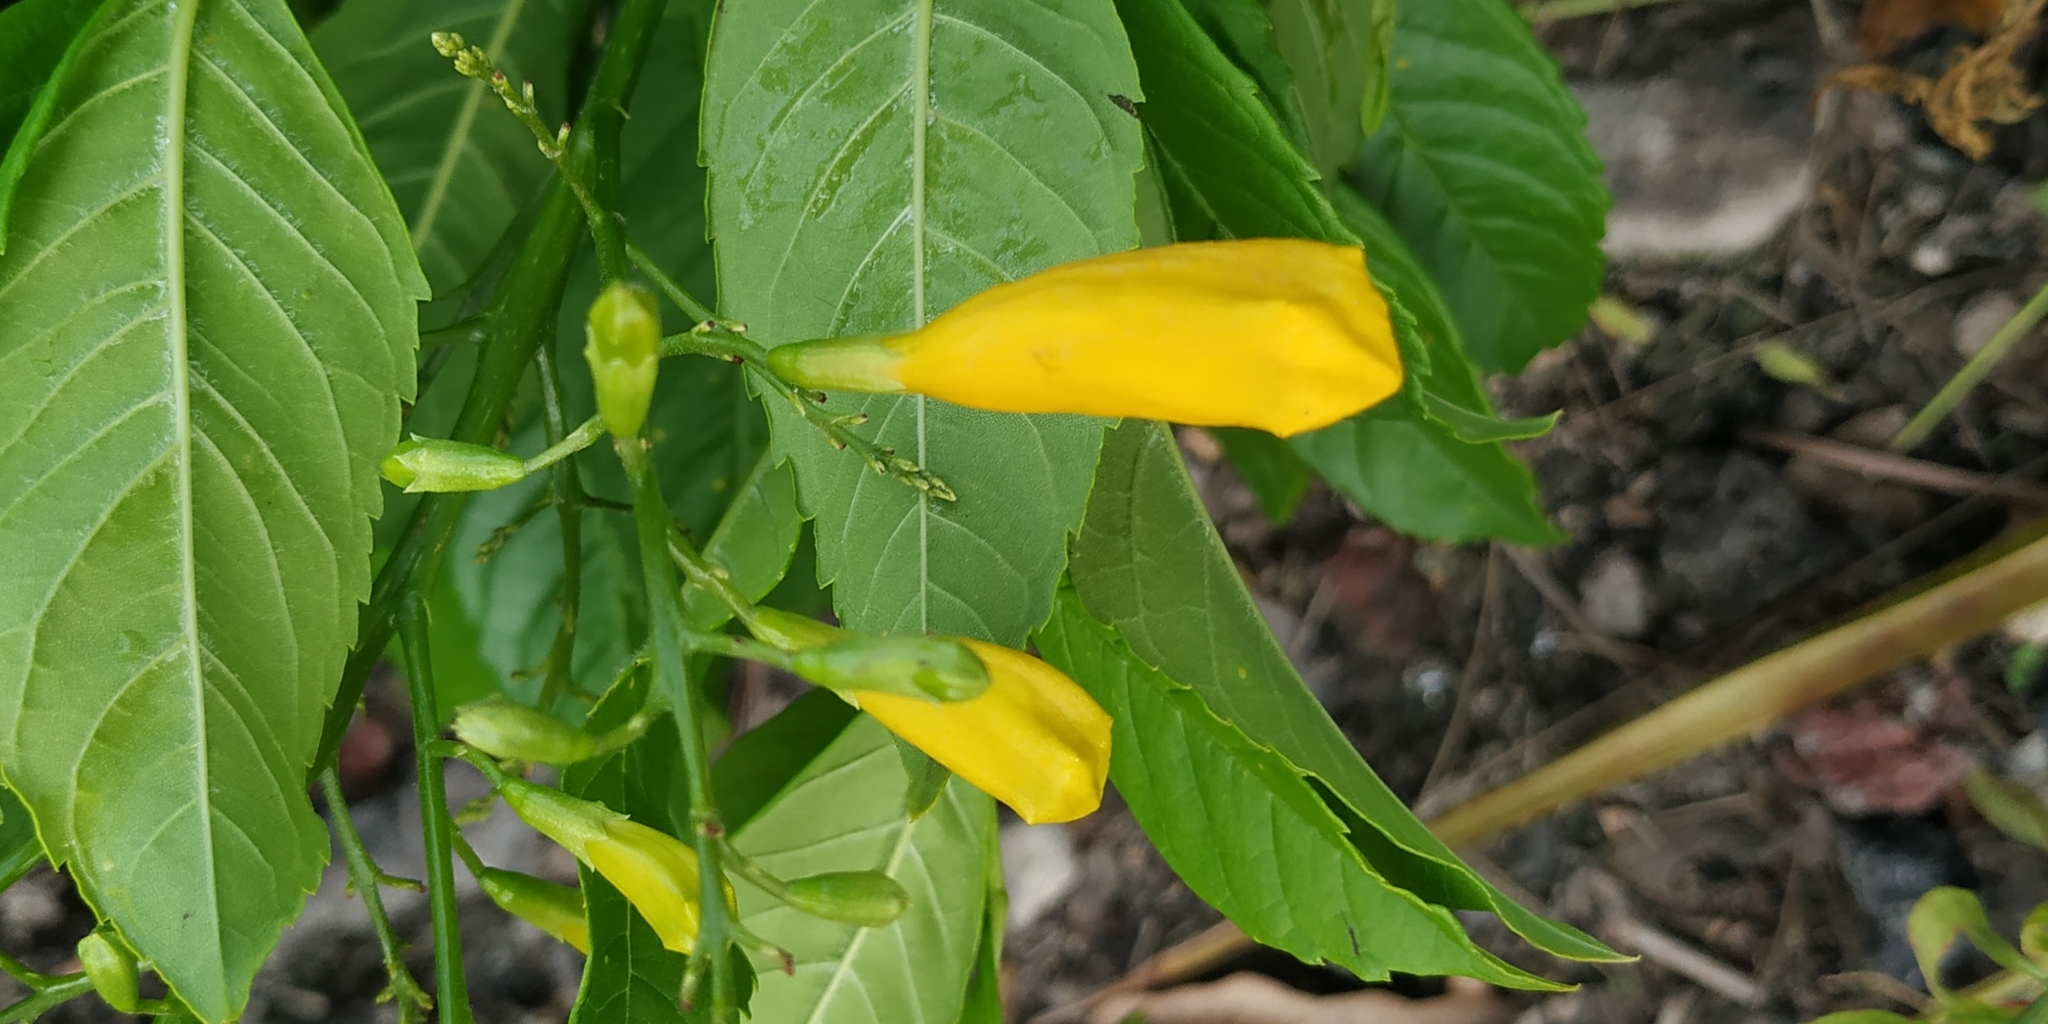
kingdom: Plantae
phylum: Tracheophyta
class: Magnoliopsida
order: Lamiales
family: Bignoniaceae
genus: Tecoma
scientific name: Tecoma stans
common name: Yellow trumpetbush
